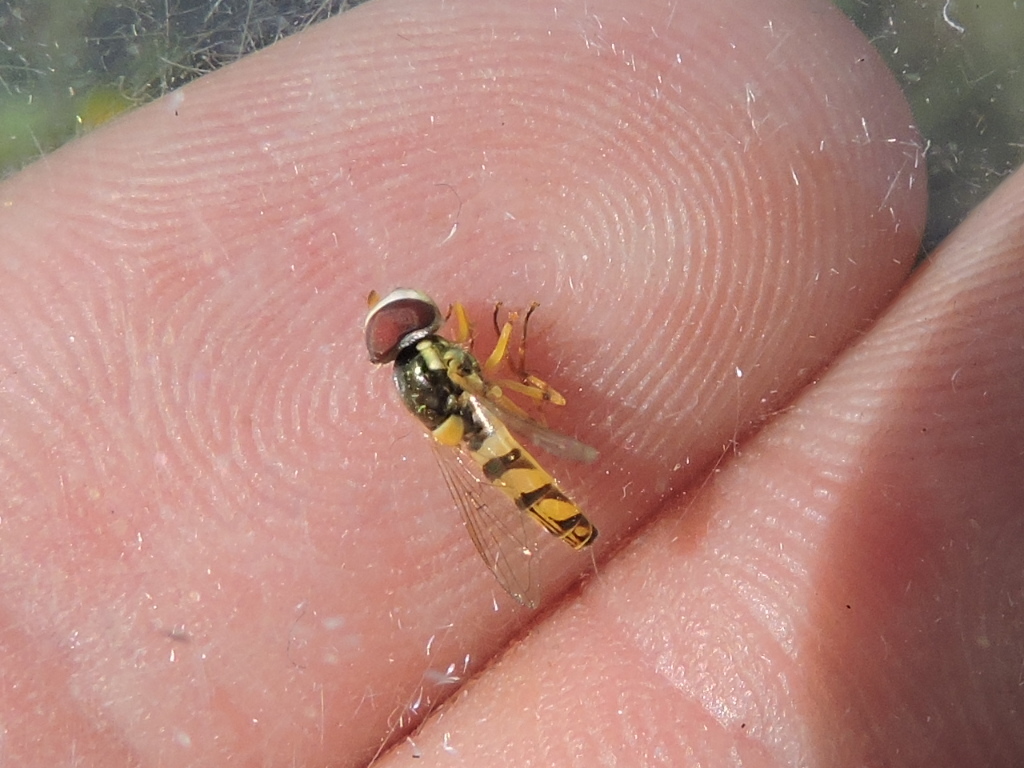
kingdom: Animalia
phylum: Arthropoda
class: Insecta
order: Diptera
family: Syrphidae
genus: Allograpta
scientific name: Allograpta obliqua
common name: Common oblique syrphid
